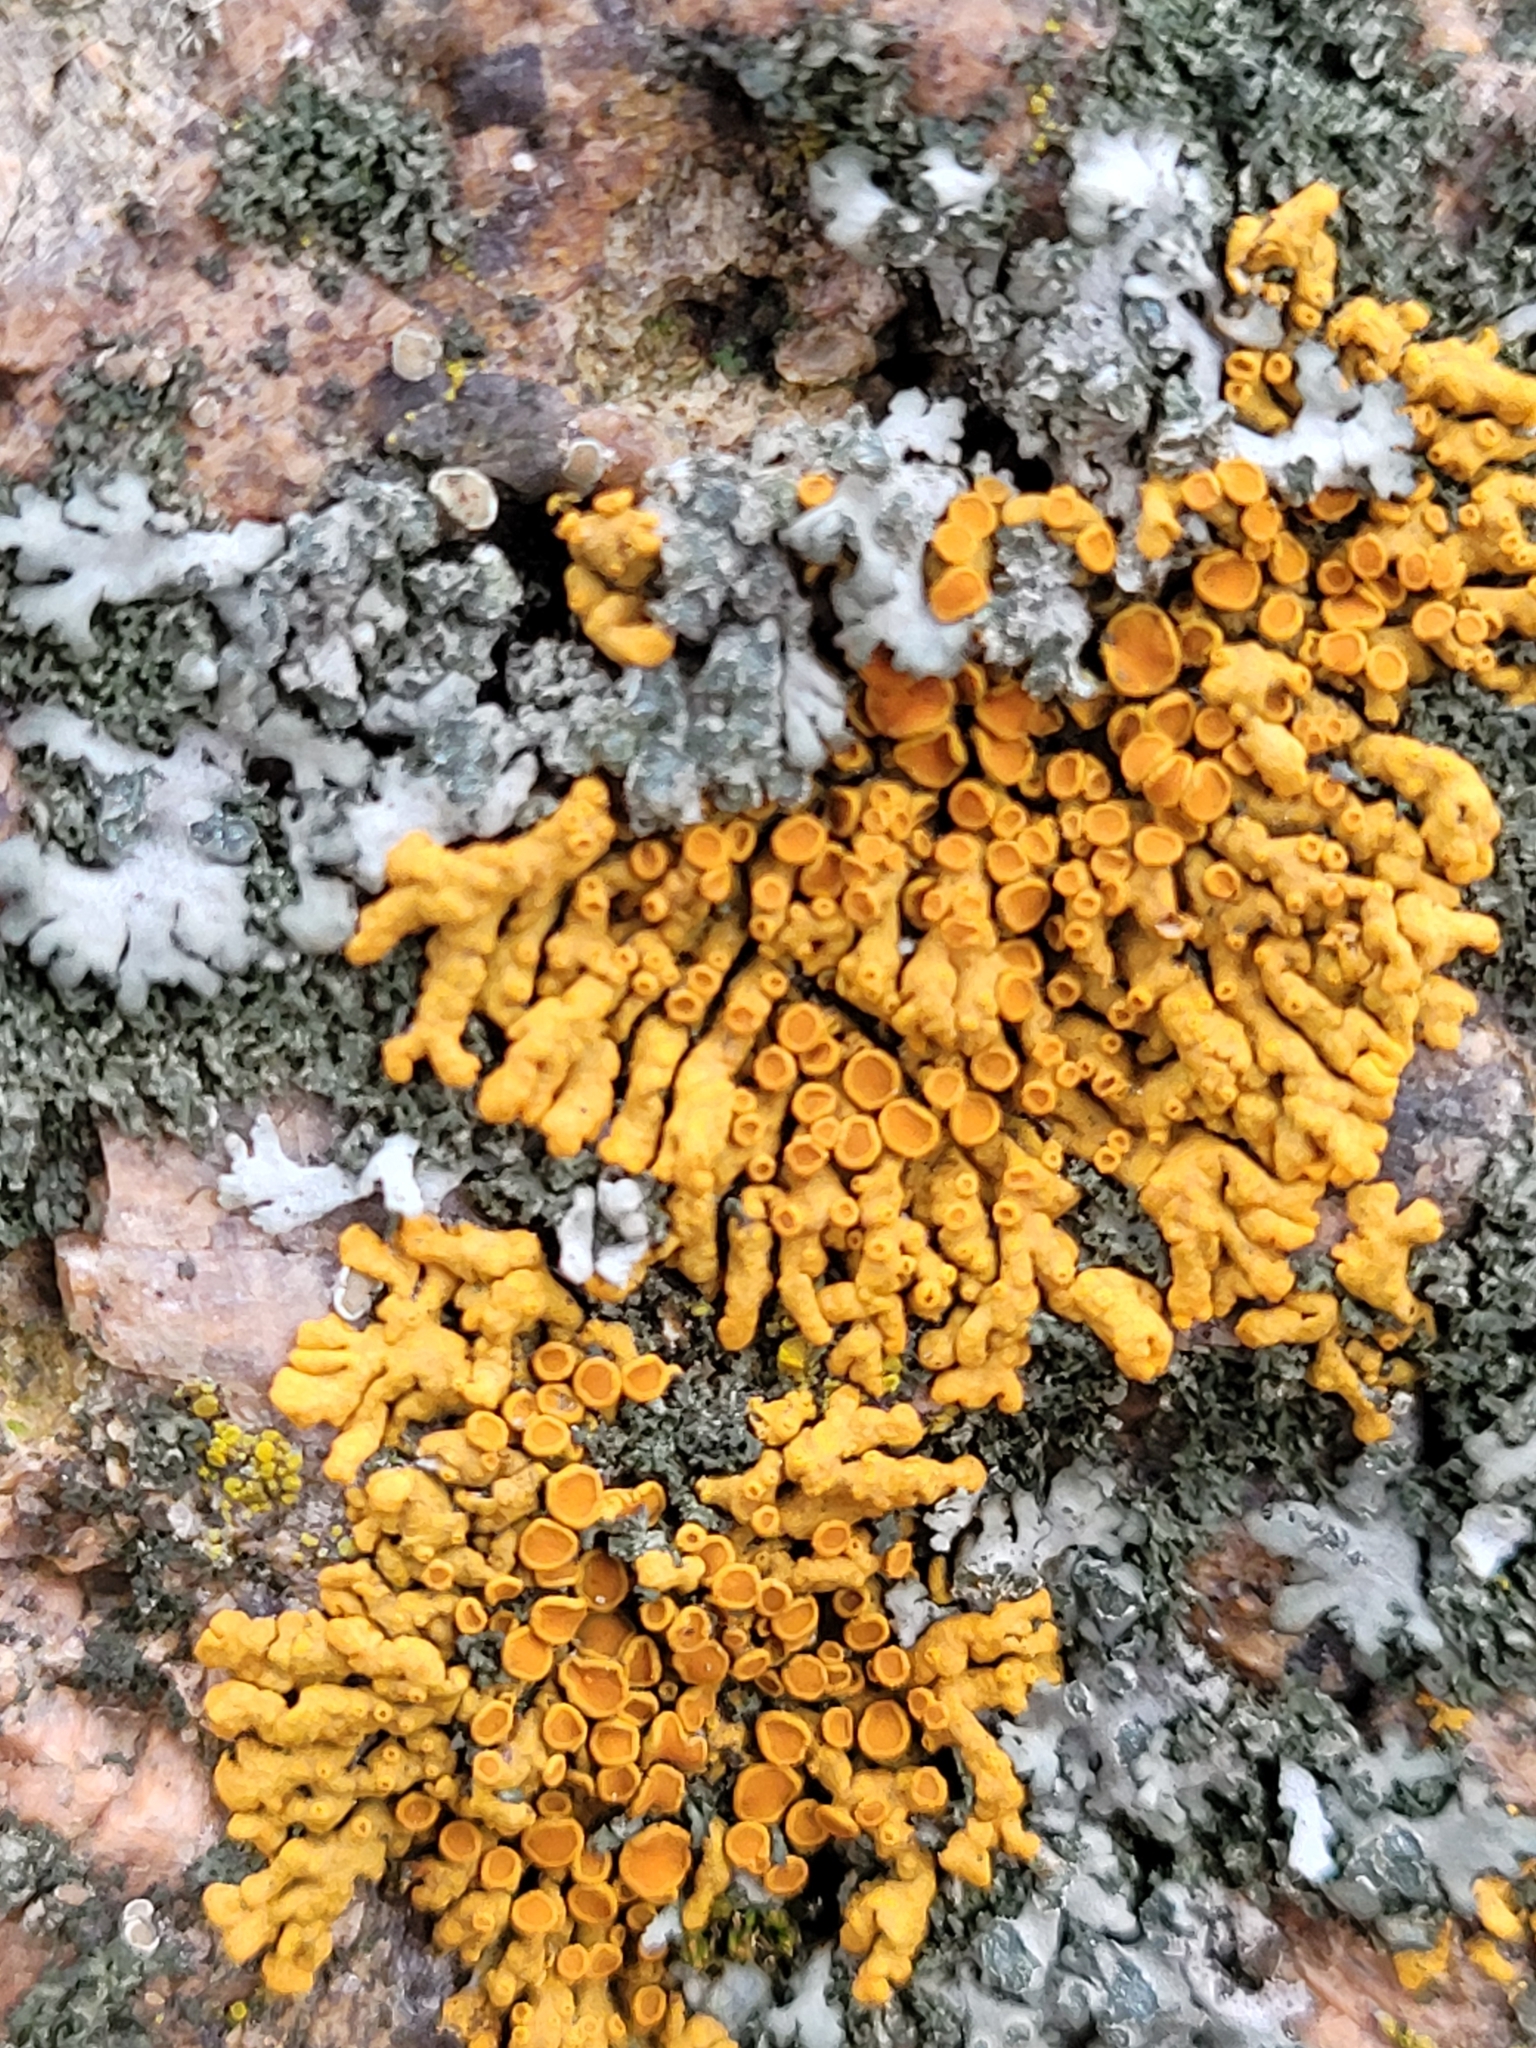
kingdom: Fungi
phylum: Ascomycota
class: Lecanoromycetes
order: Teloschistales
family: Teloschistaceae
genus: Xanthoria
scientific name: Xanthoria elegans
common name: Elegant sunburst lichen
